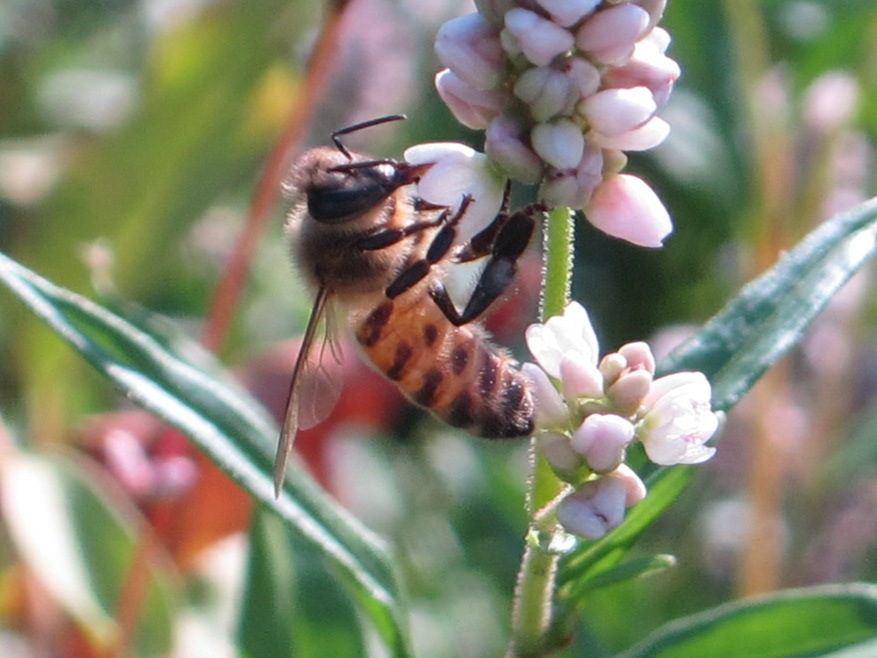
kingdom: Animalia
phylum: Arthropoda
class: Insecta
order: Hymenoptera
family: Apidae
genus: Apis
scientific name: Apis mellifera
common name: Honey bee
